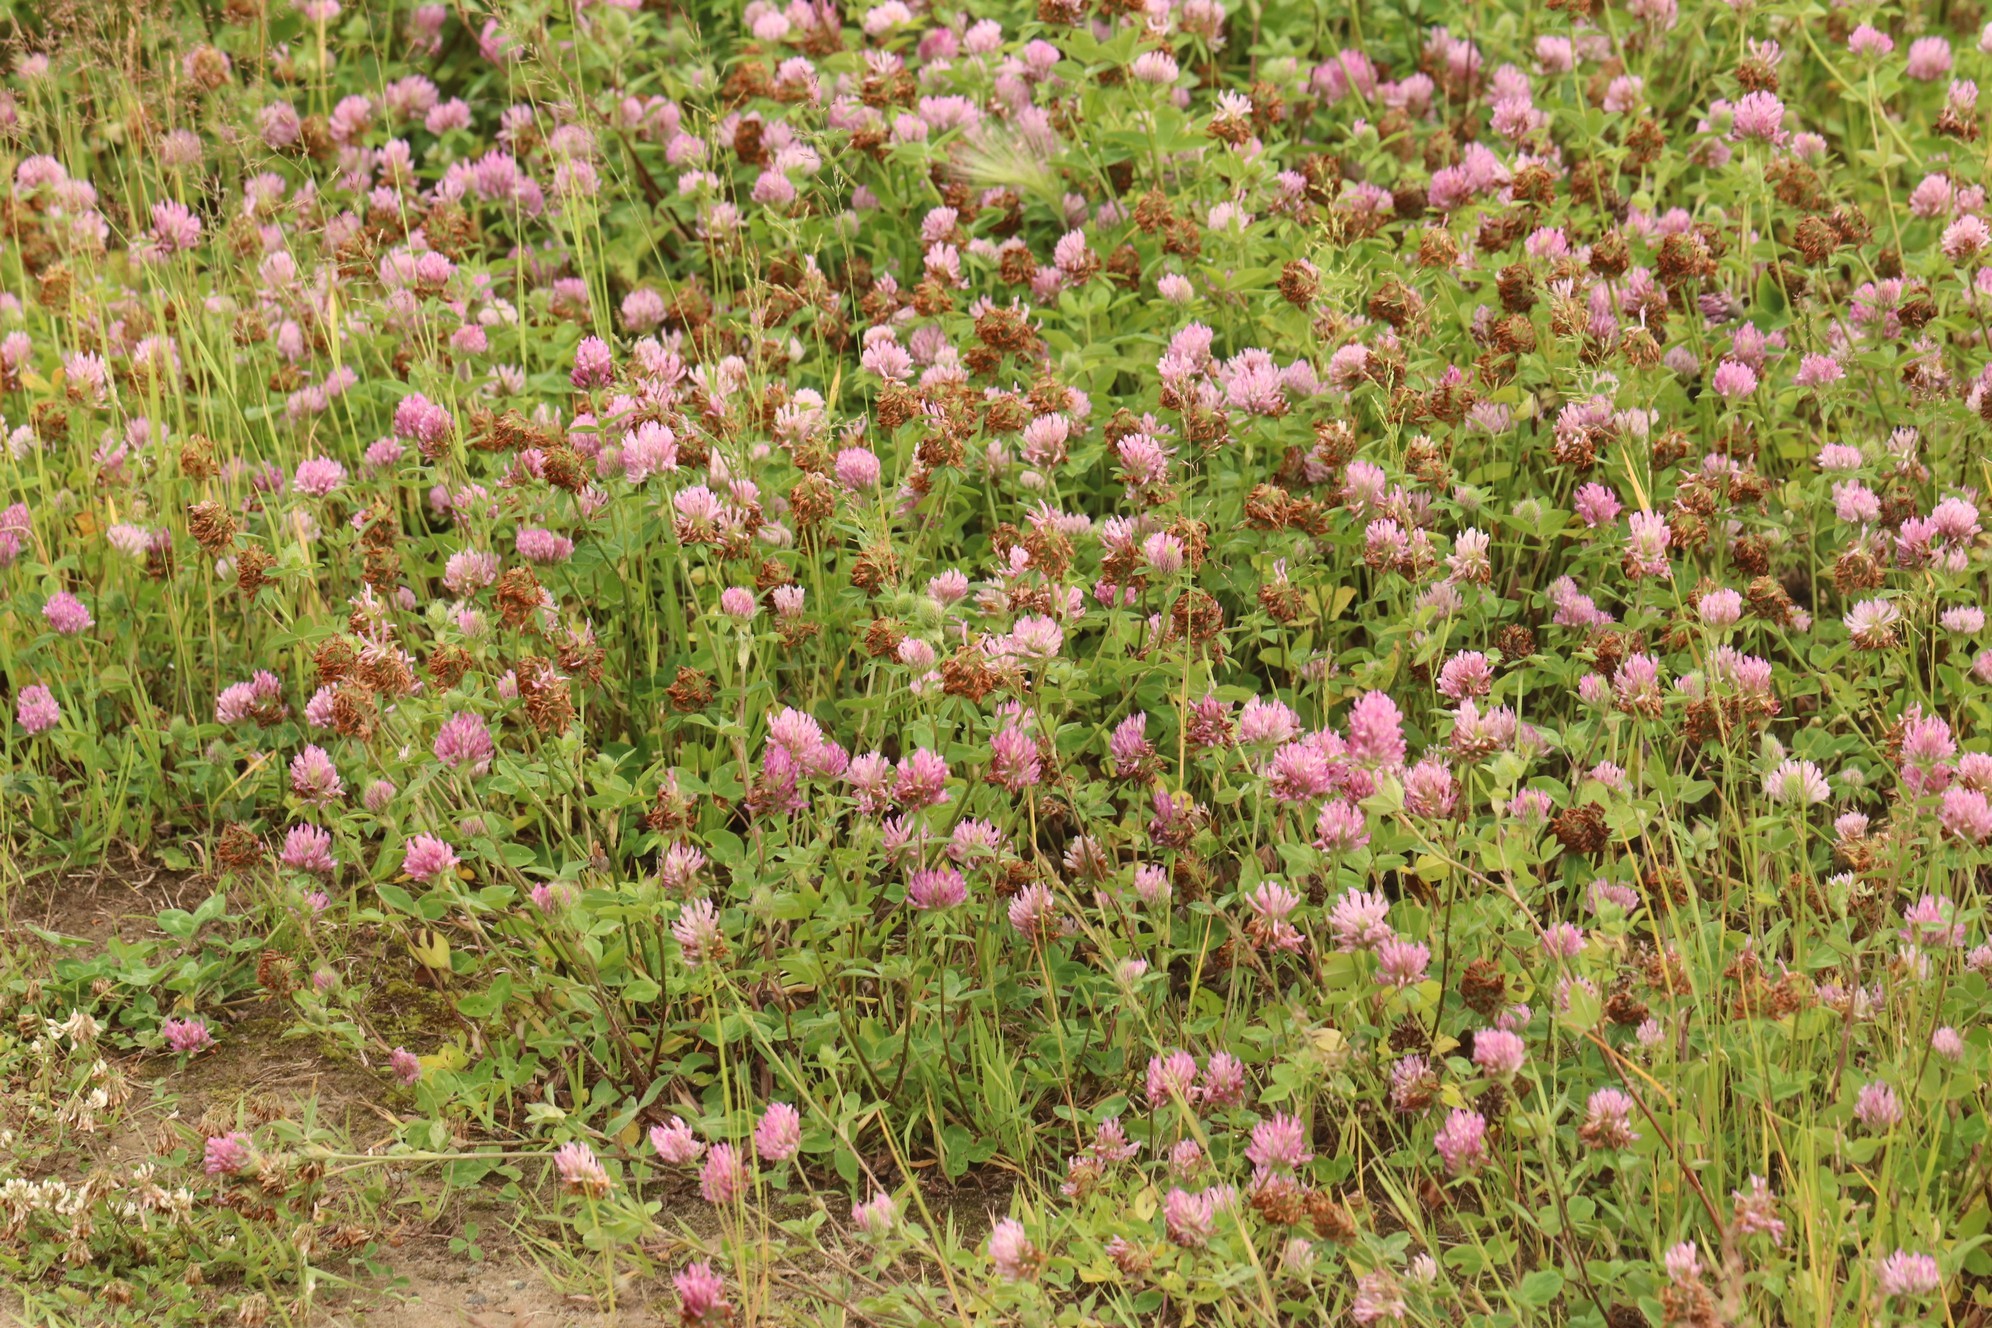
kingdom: Plantae
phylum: Tracheophyta
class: Magnoliopsida
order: Fabales
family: Fabaceae
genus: Trifolium
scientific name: Trifolium pratense
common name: Red clover
